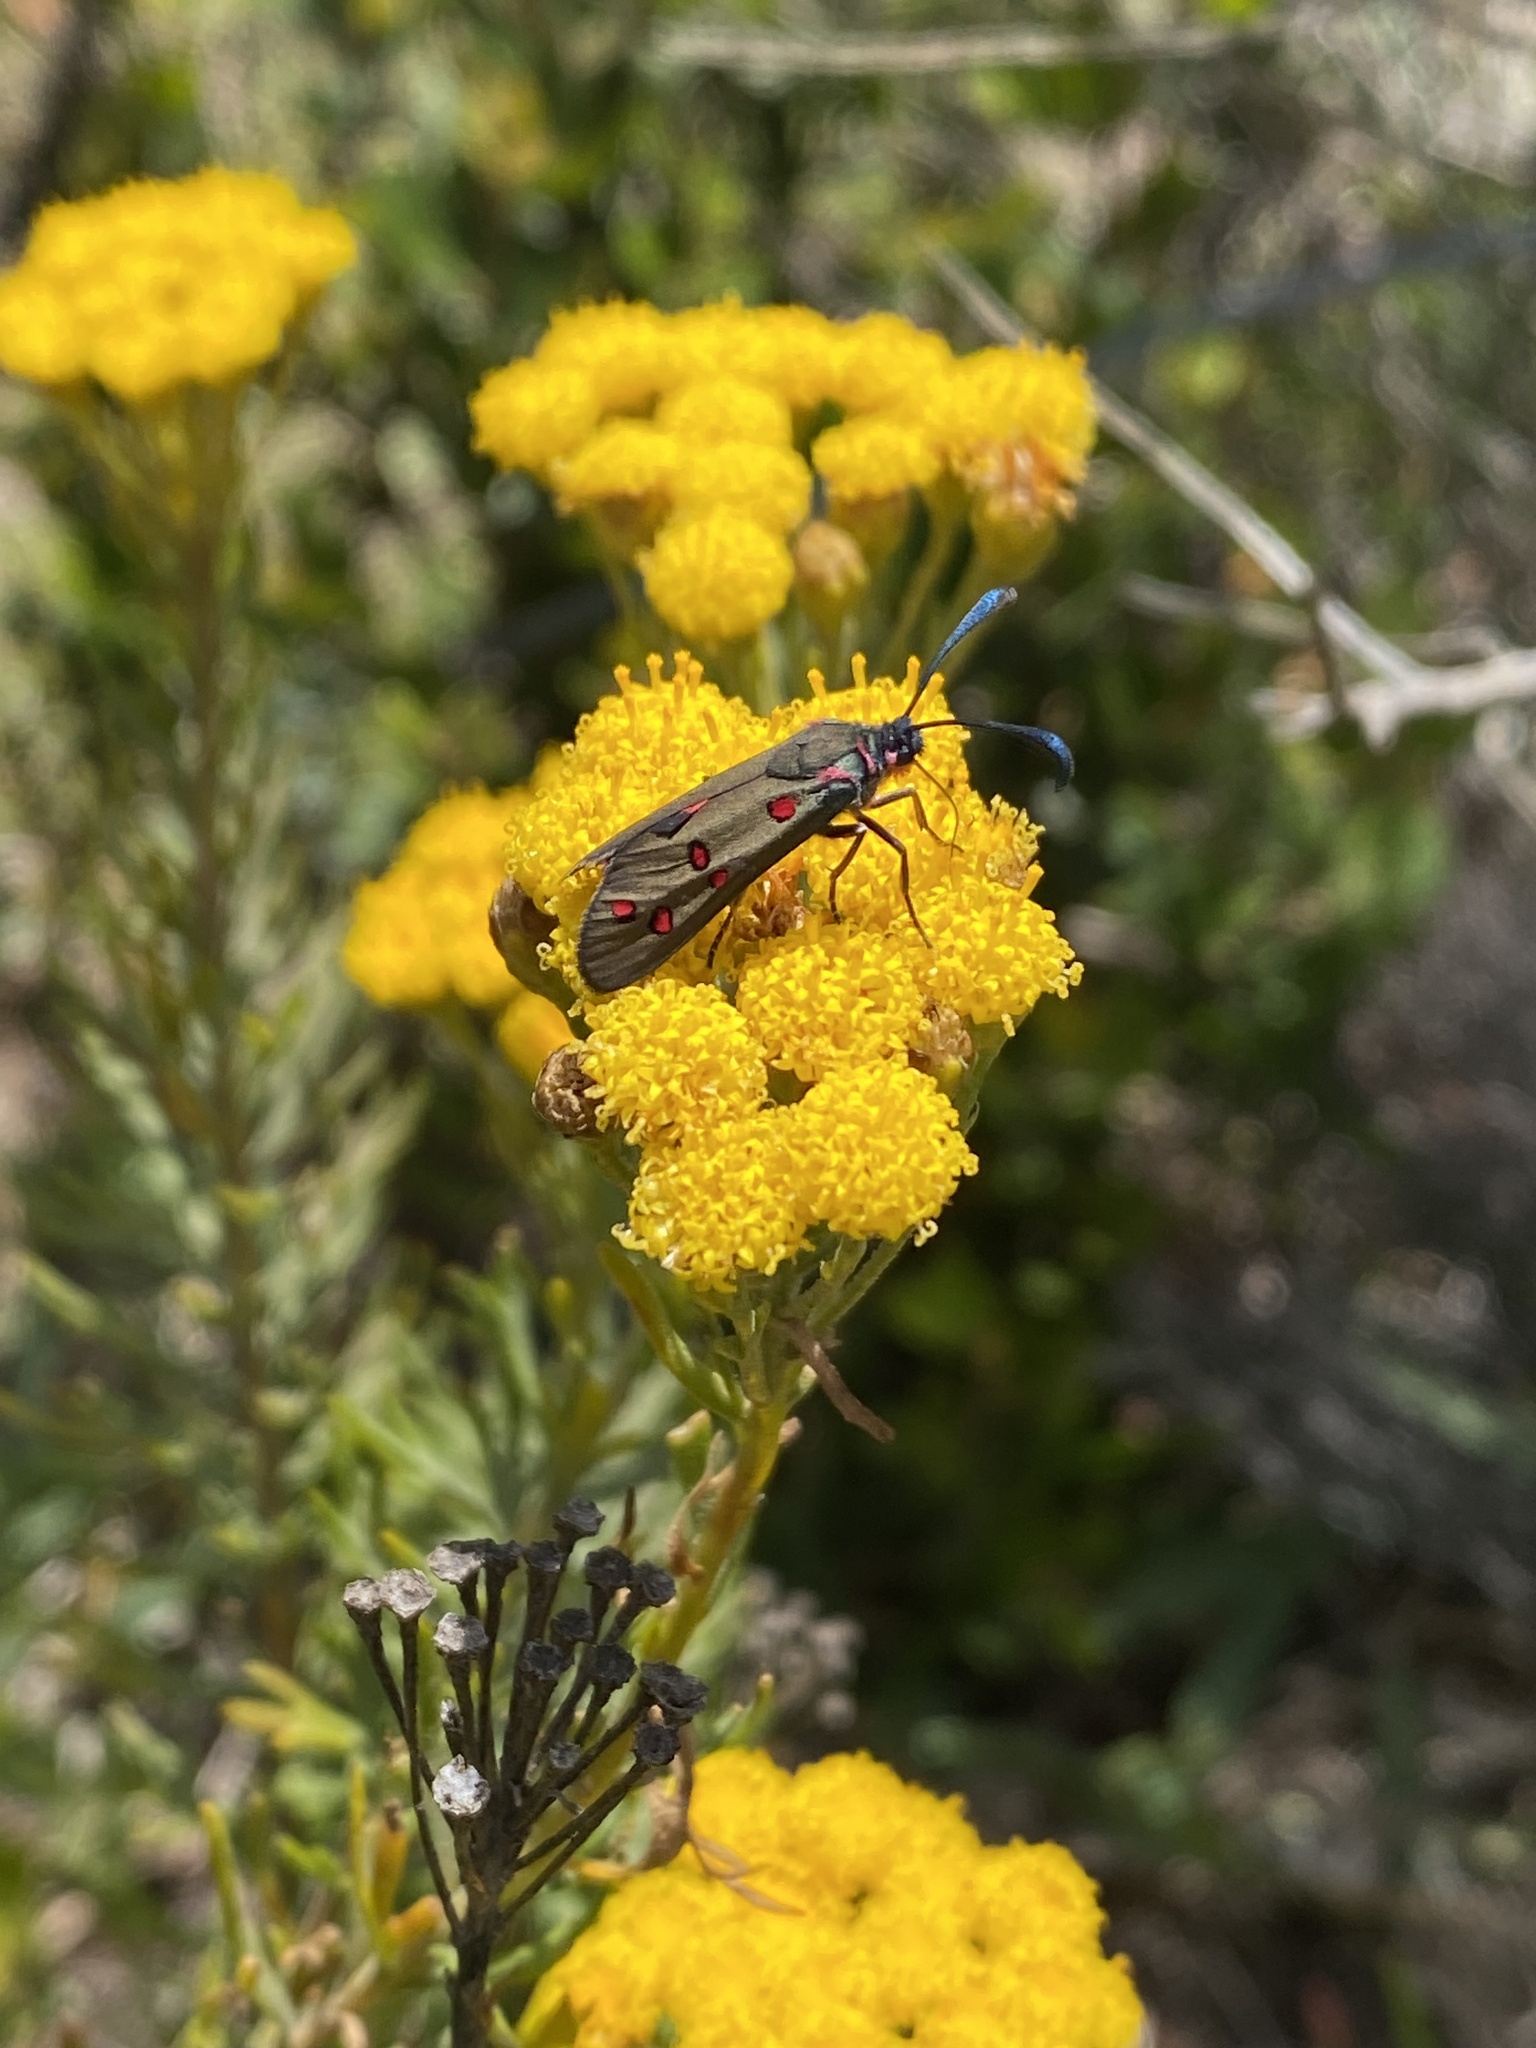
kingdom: Animalia
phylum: Arthropoda
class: Insecta
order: Lepidoptera
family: Zygaenidae
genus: Neurosymploca
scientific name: Neurosymploca caffra
